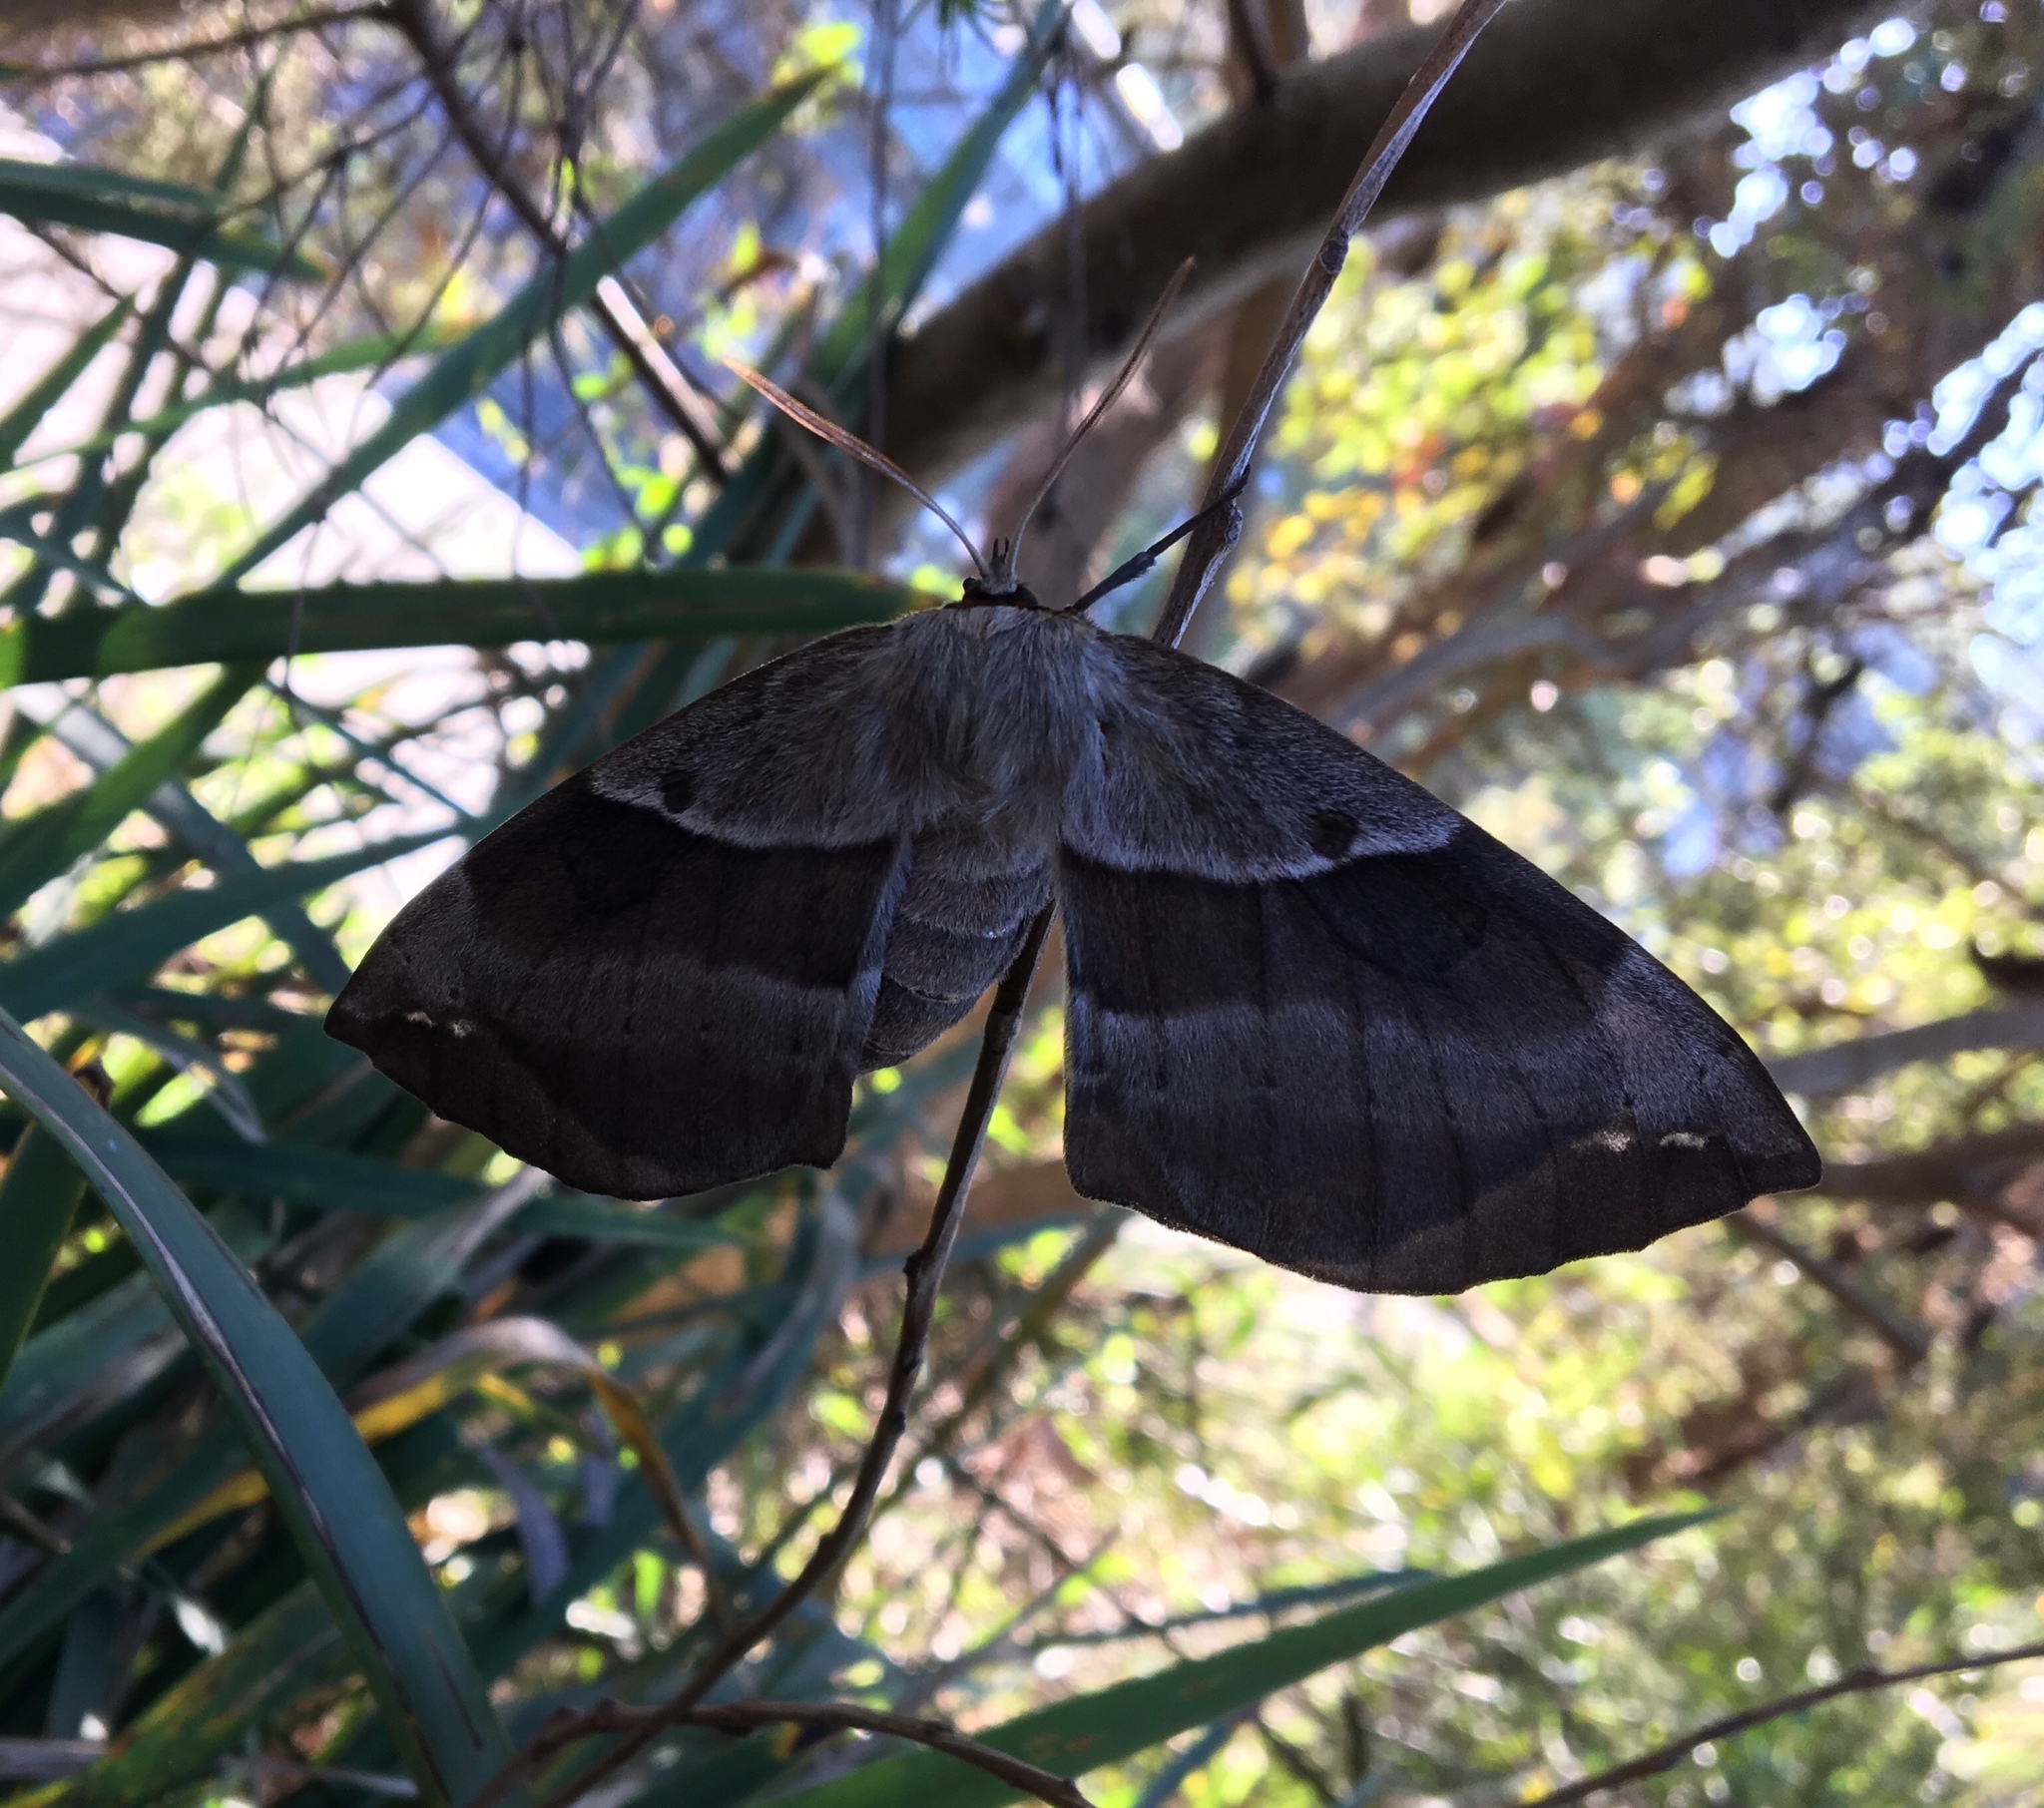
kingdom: Animalia
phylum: Arthropoda
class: Insecta
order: Lepidoptera
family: Anthelidae
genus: Chelepteryx
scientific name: Chelepteryx chalepteryx
